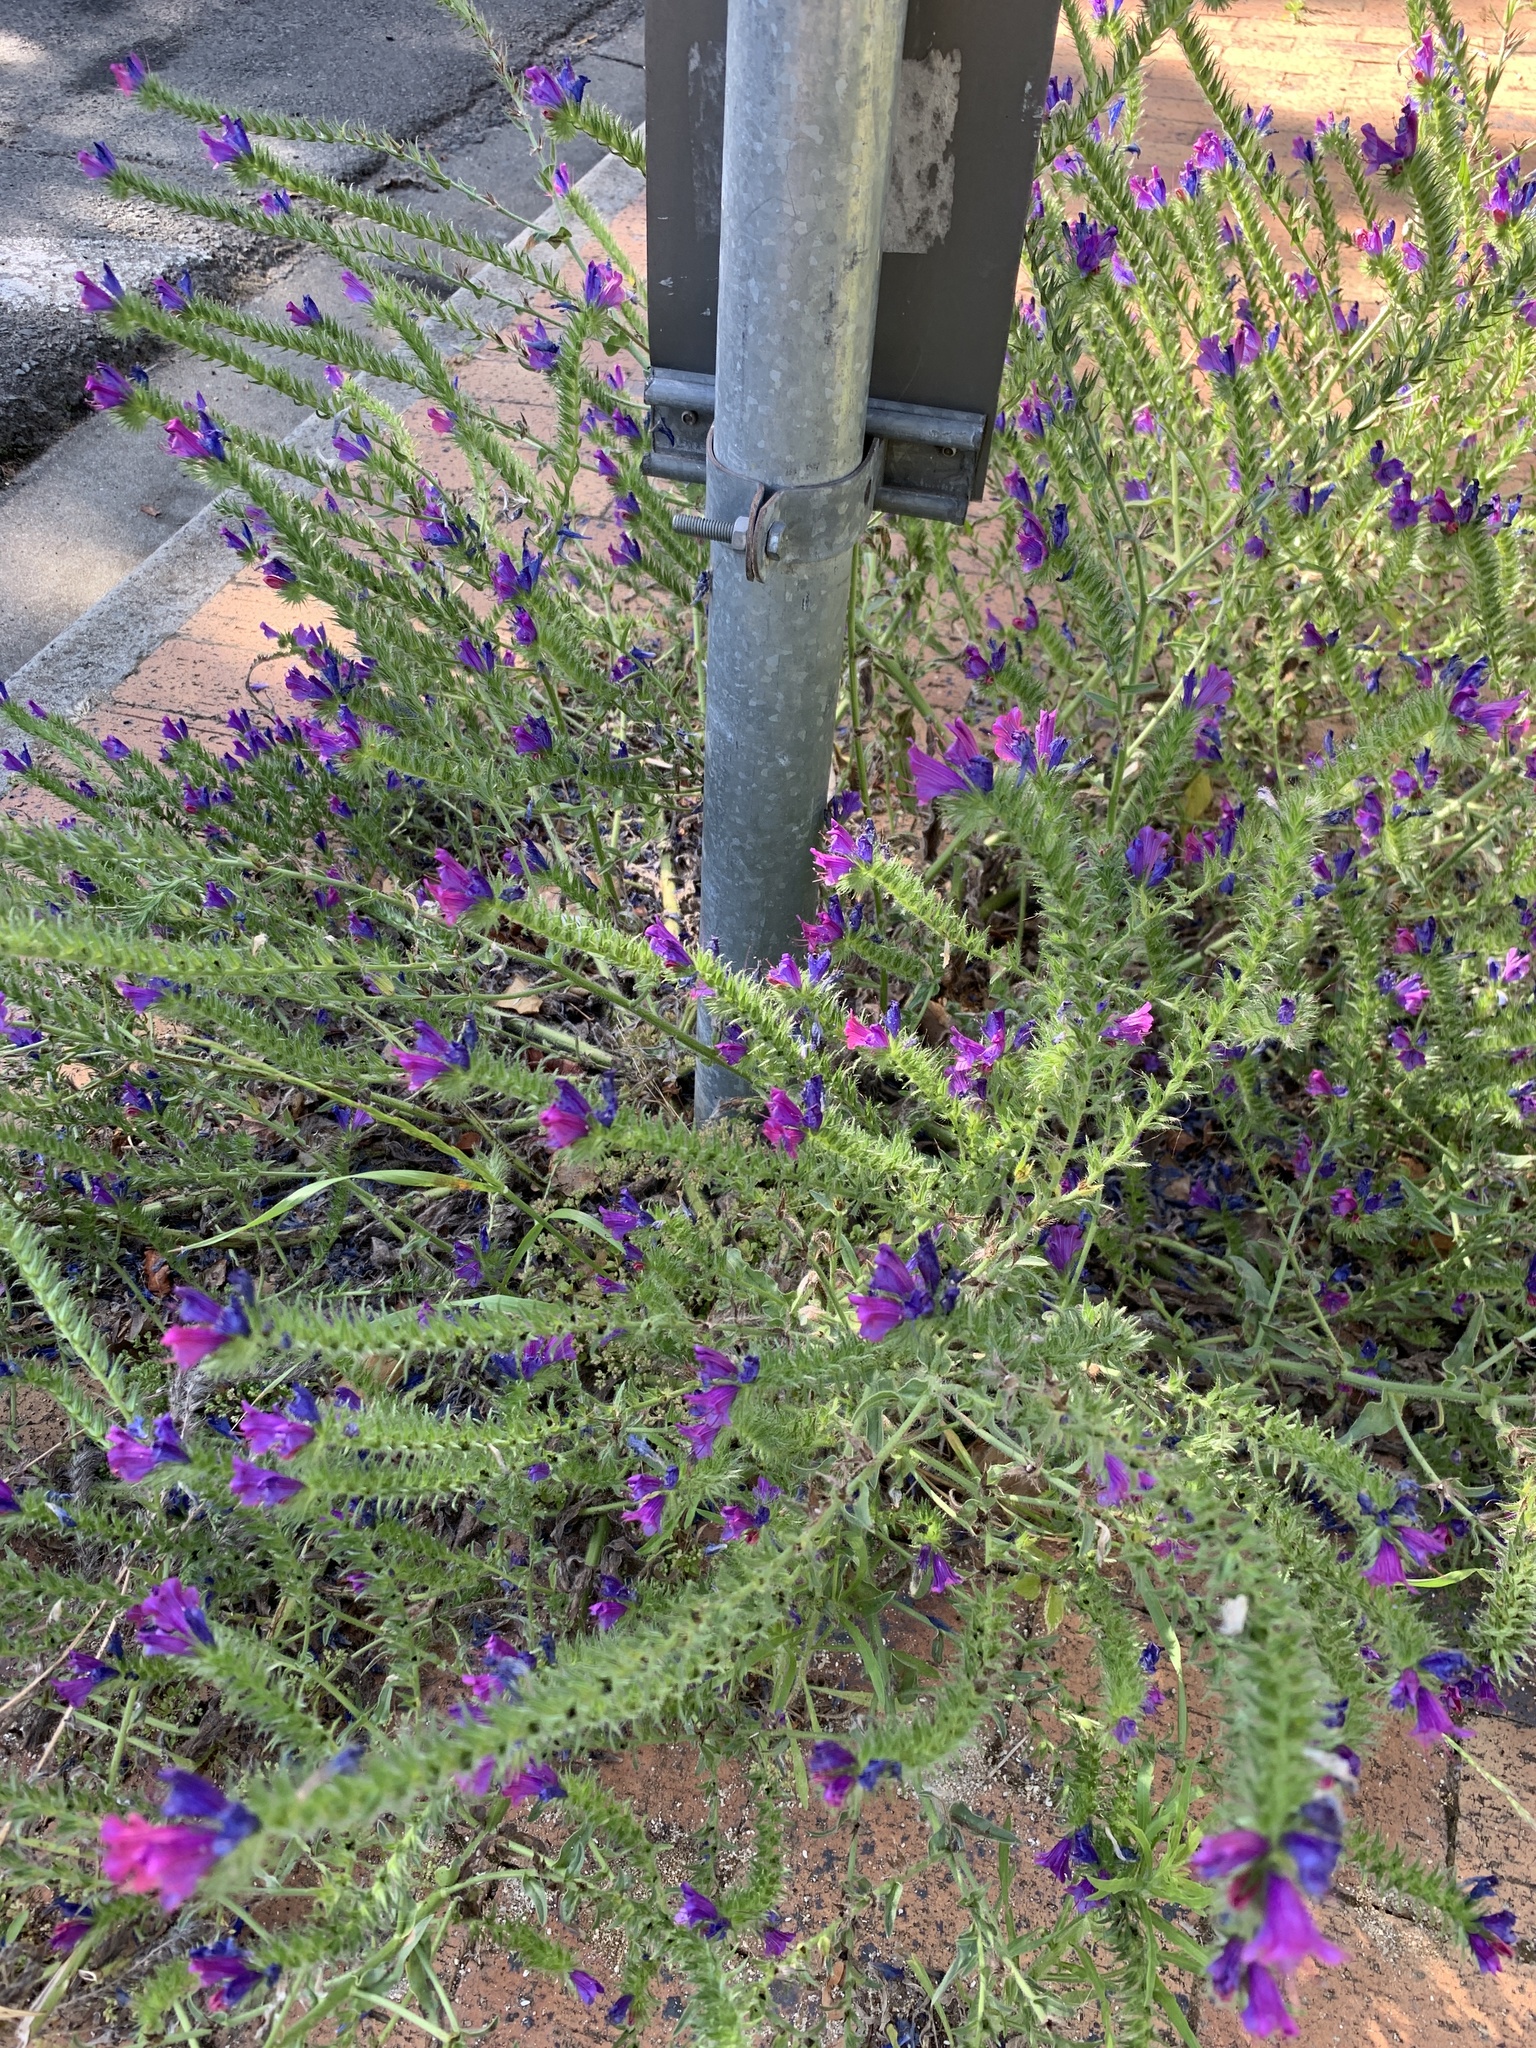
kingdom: Plantae
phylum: Tracheophyta
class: Magnoliopsida
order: Boraginales
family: Boraginaceae
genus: Echium
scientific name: Echium plantagineum
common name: Purple viper's-bugloss
